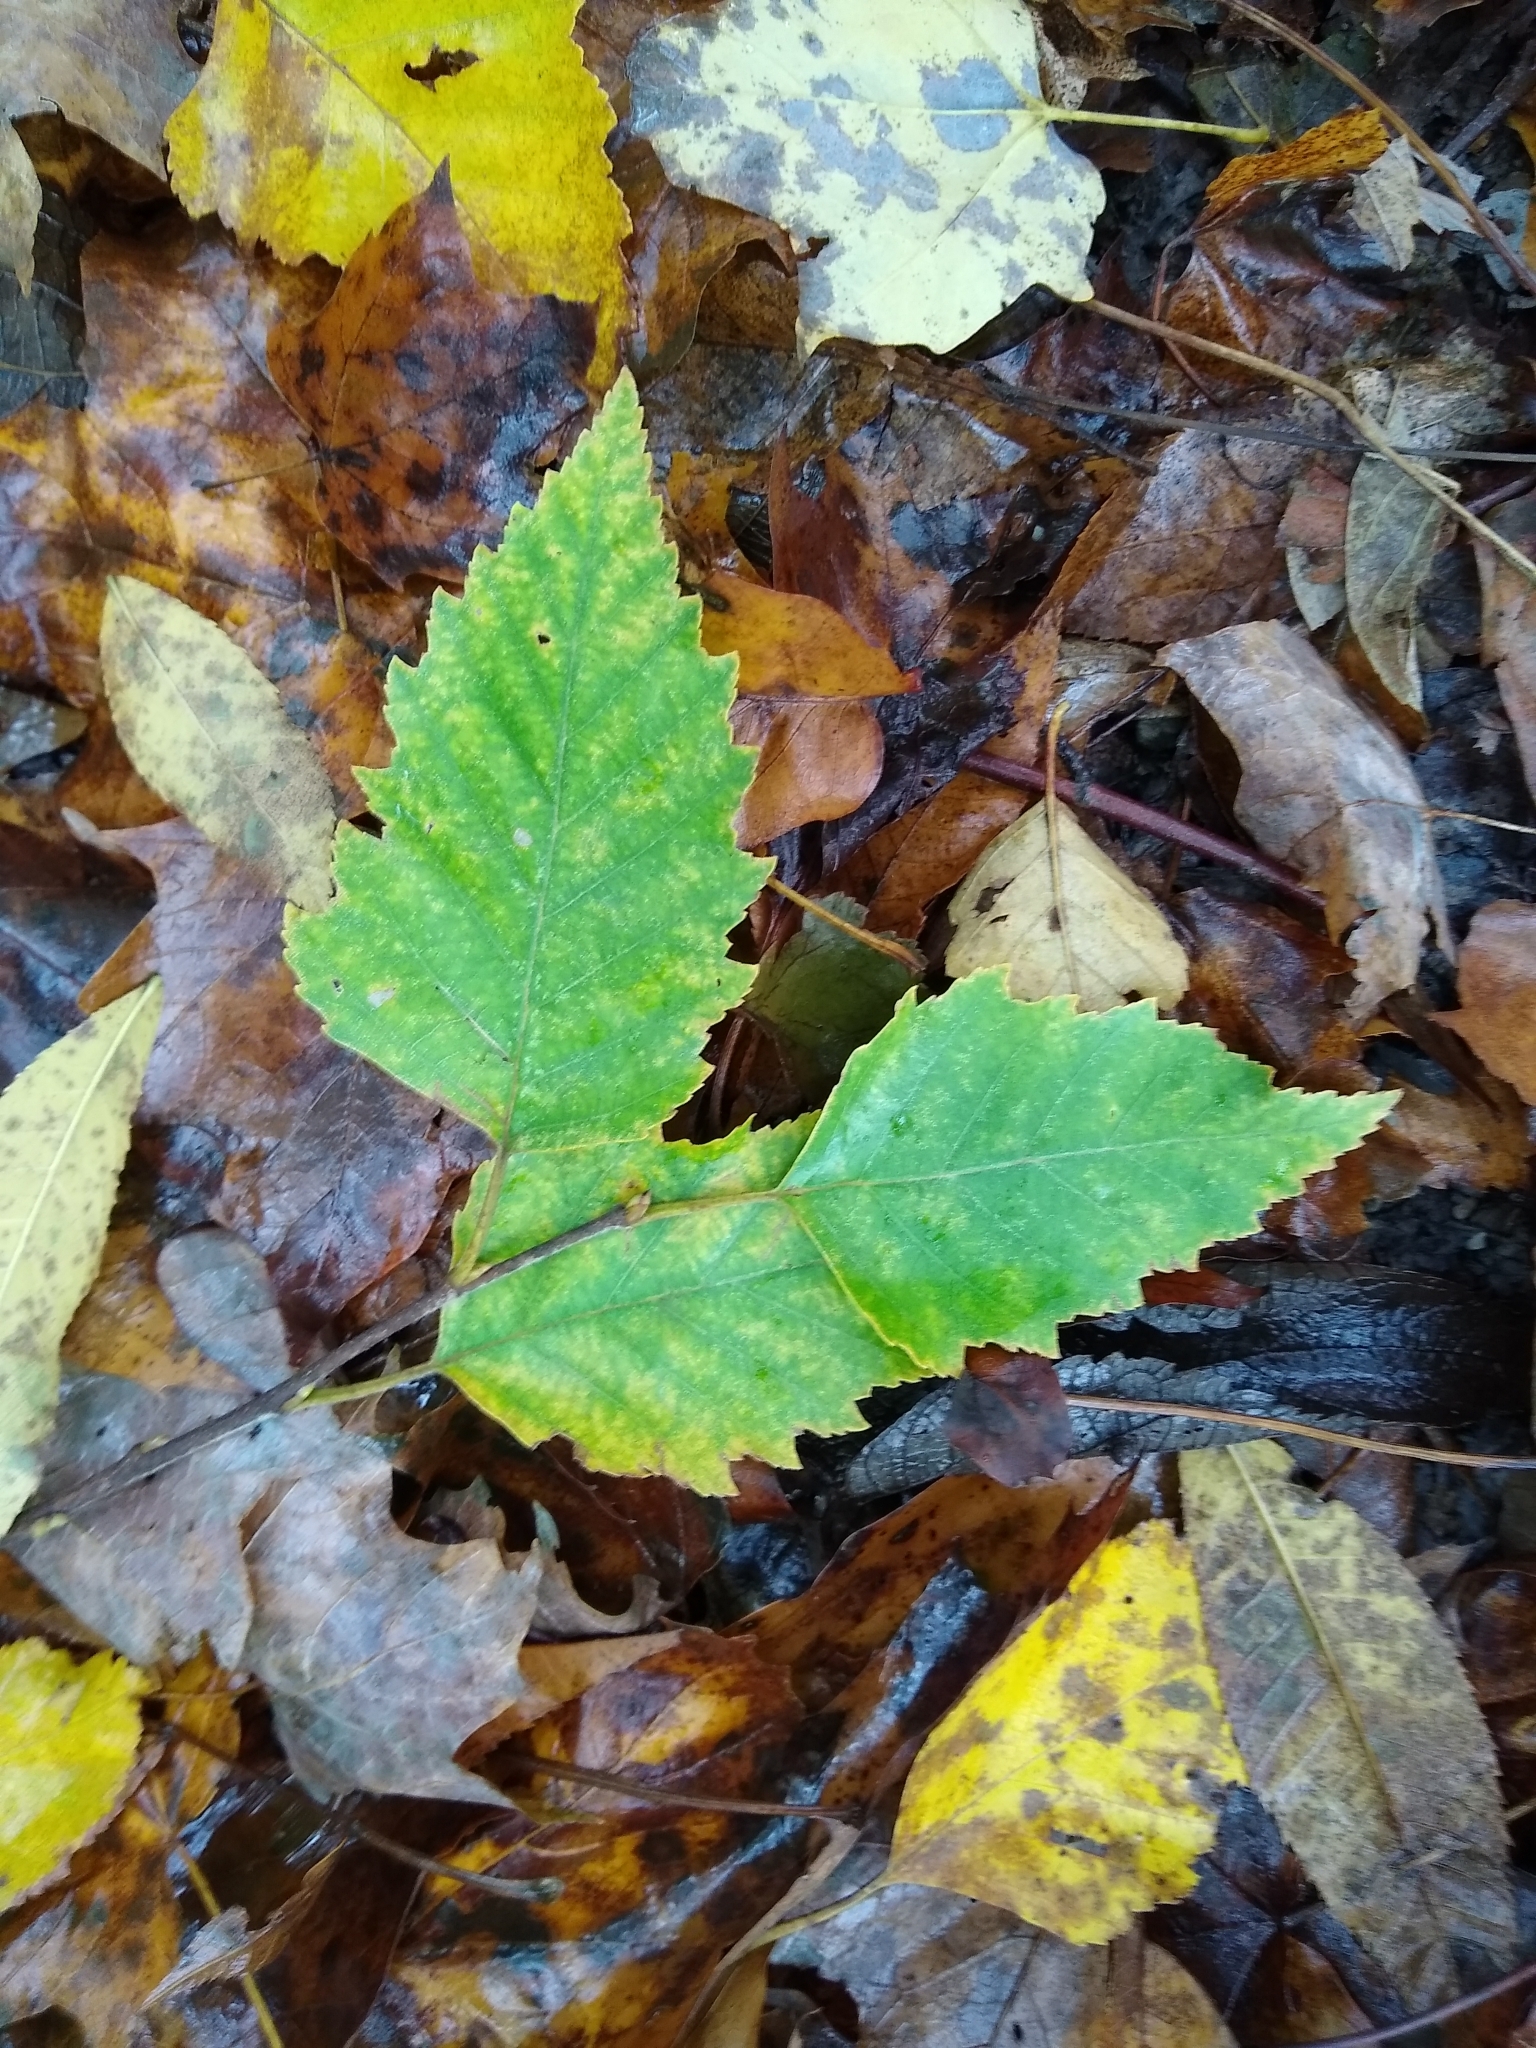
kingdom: Plantae
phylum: Tracheophyta
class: Magnoliopsida
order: Fagales
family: Betulaceae
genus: Betula
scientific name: Betula nigra
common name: Black birch
